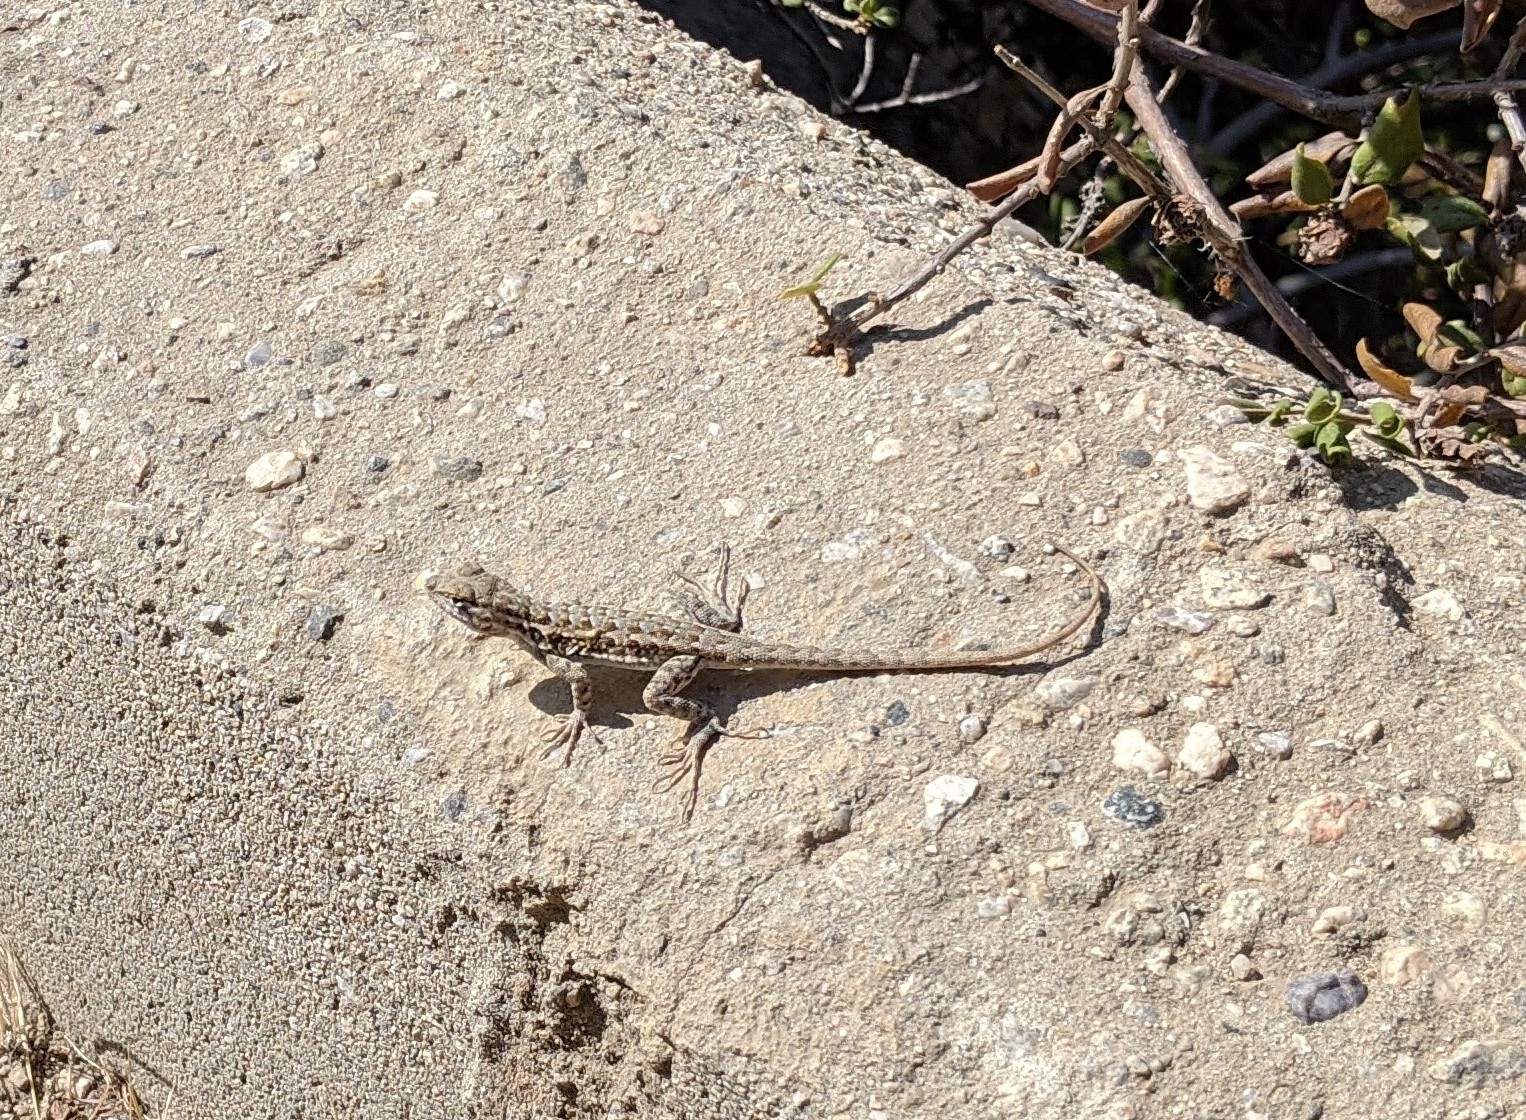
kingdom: Animalia
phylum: Chordata
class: Squamata
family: Phrynosomatidae
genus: Uta
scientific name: Uta stansburiana
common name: Side-blotched lizard
